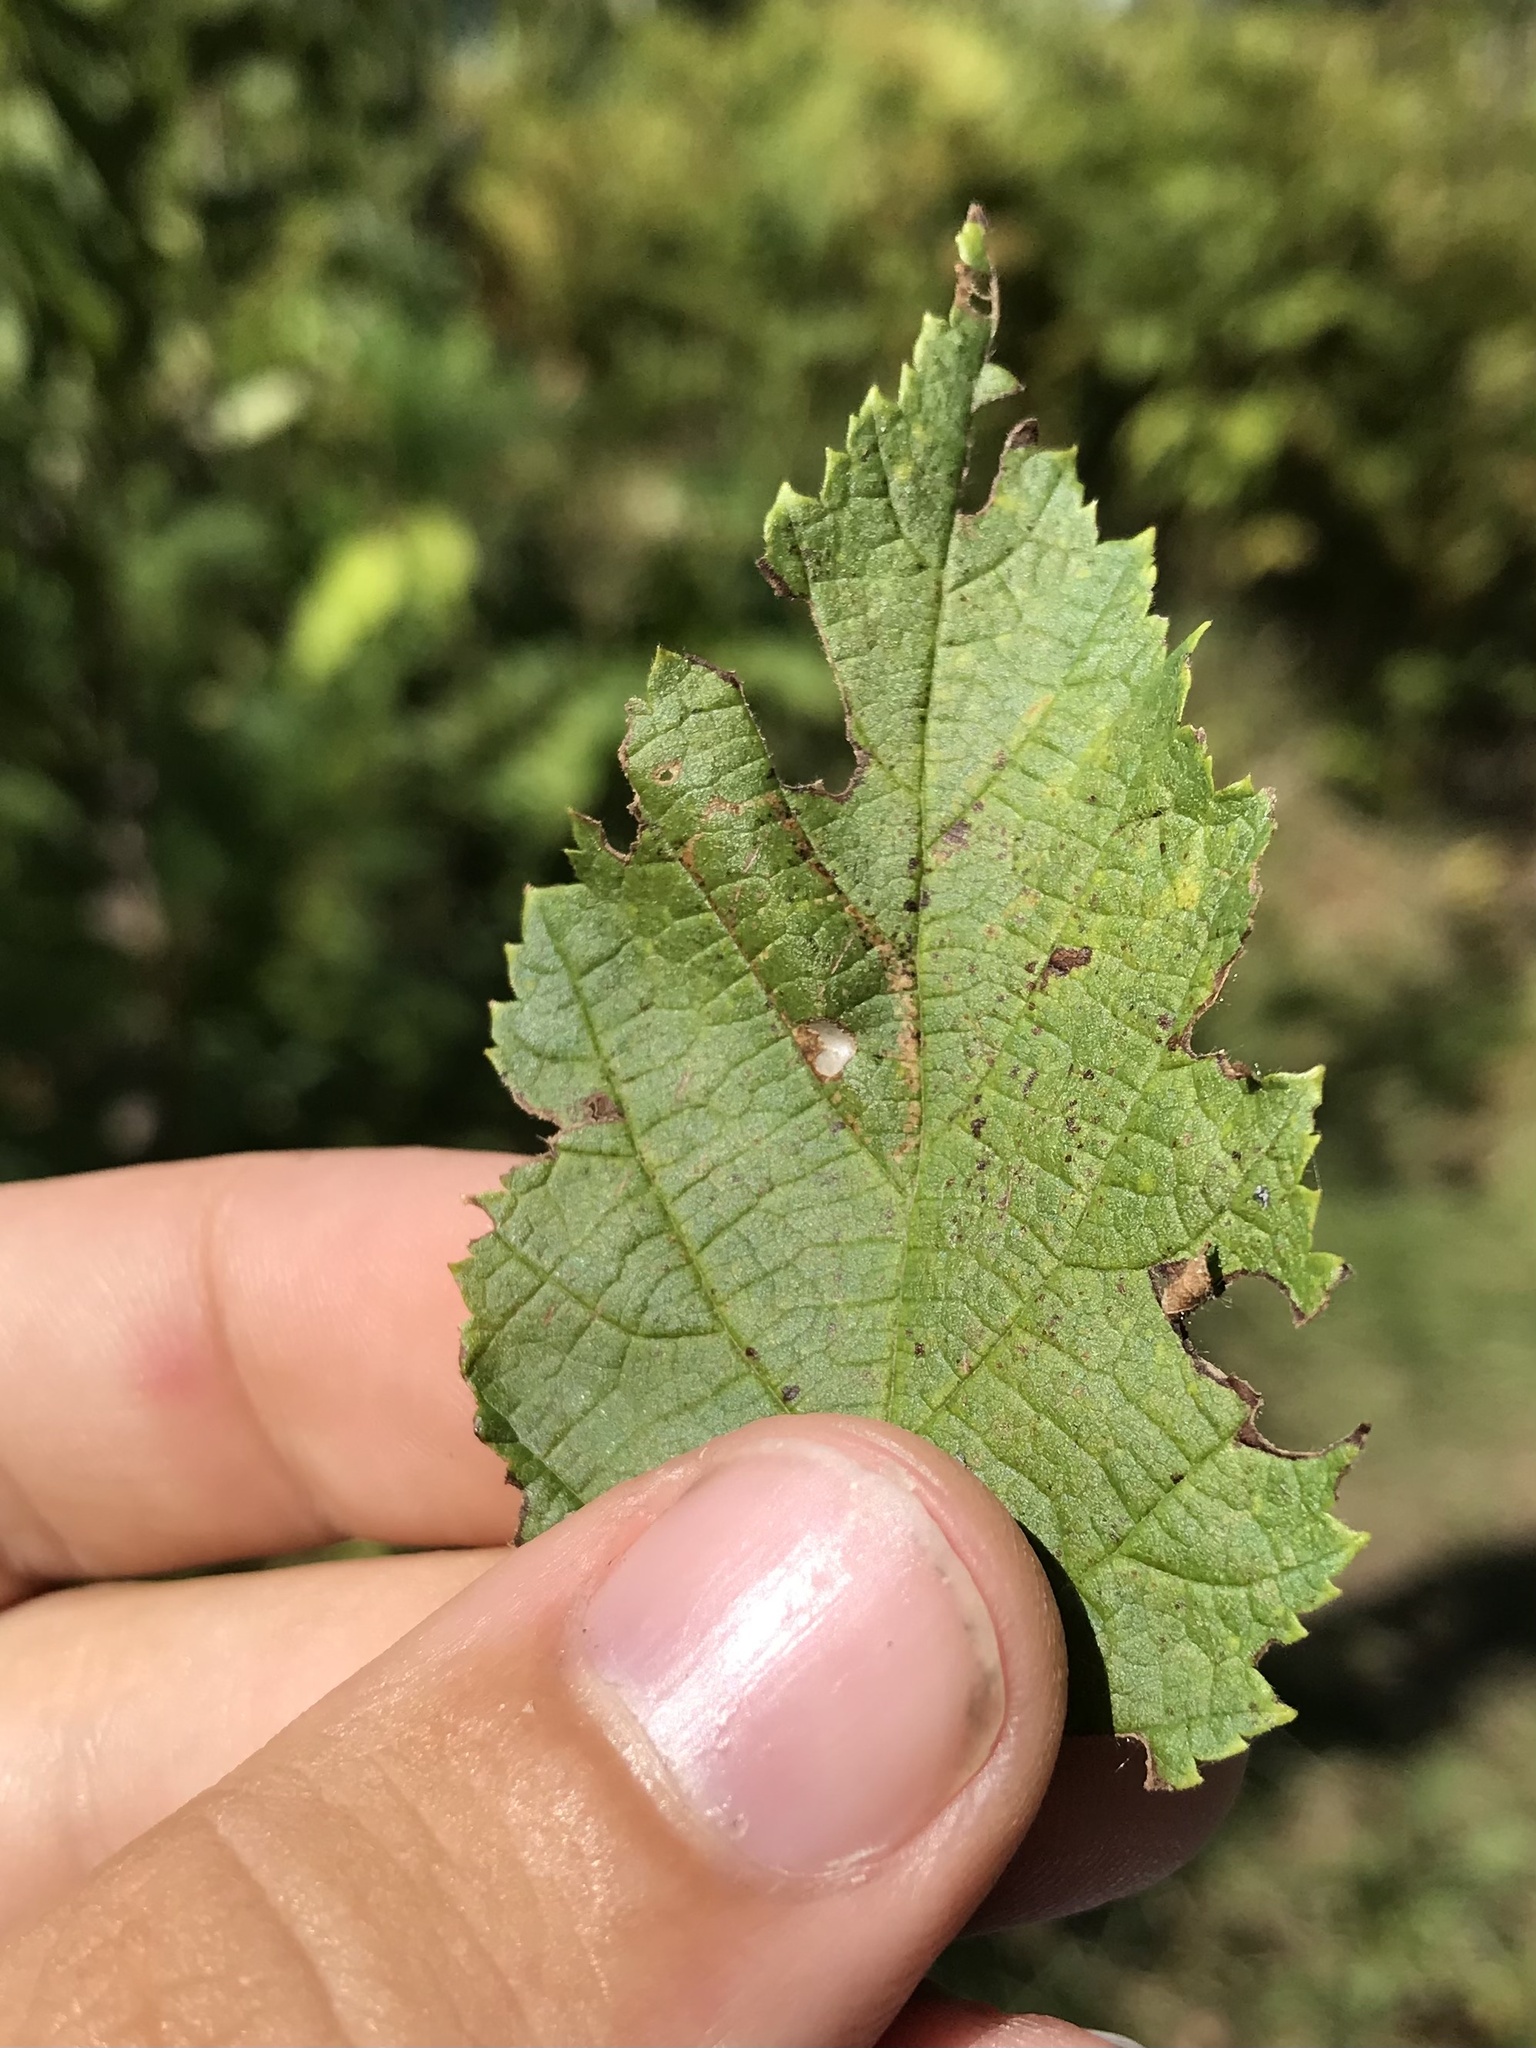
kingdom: Animalia
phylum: Arthropoda
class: Insecta
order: Lepidoptera
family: Gracillariidae
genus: Phyllonorycter
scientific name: Phyllonorycter intermixta
